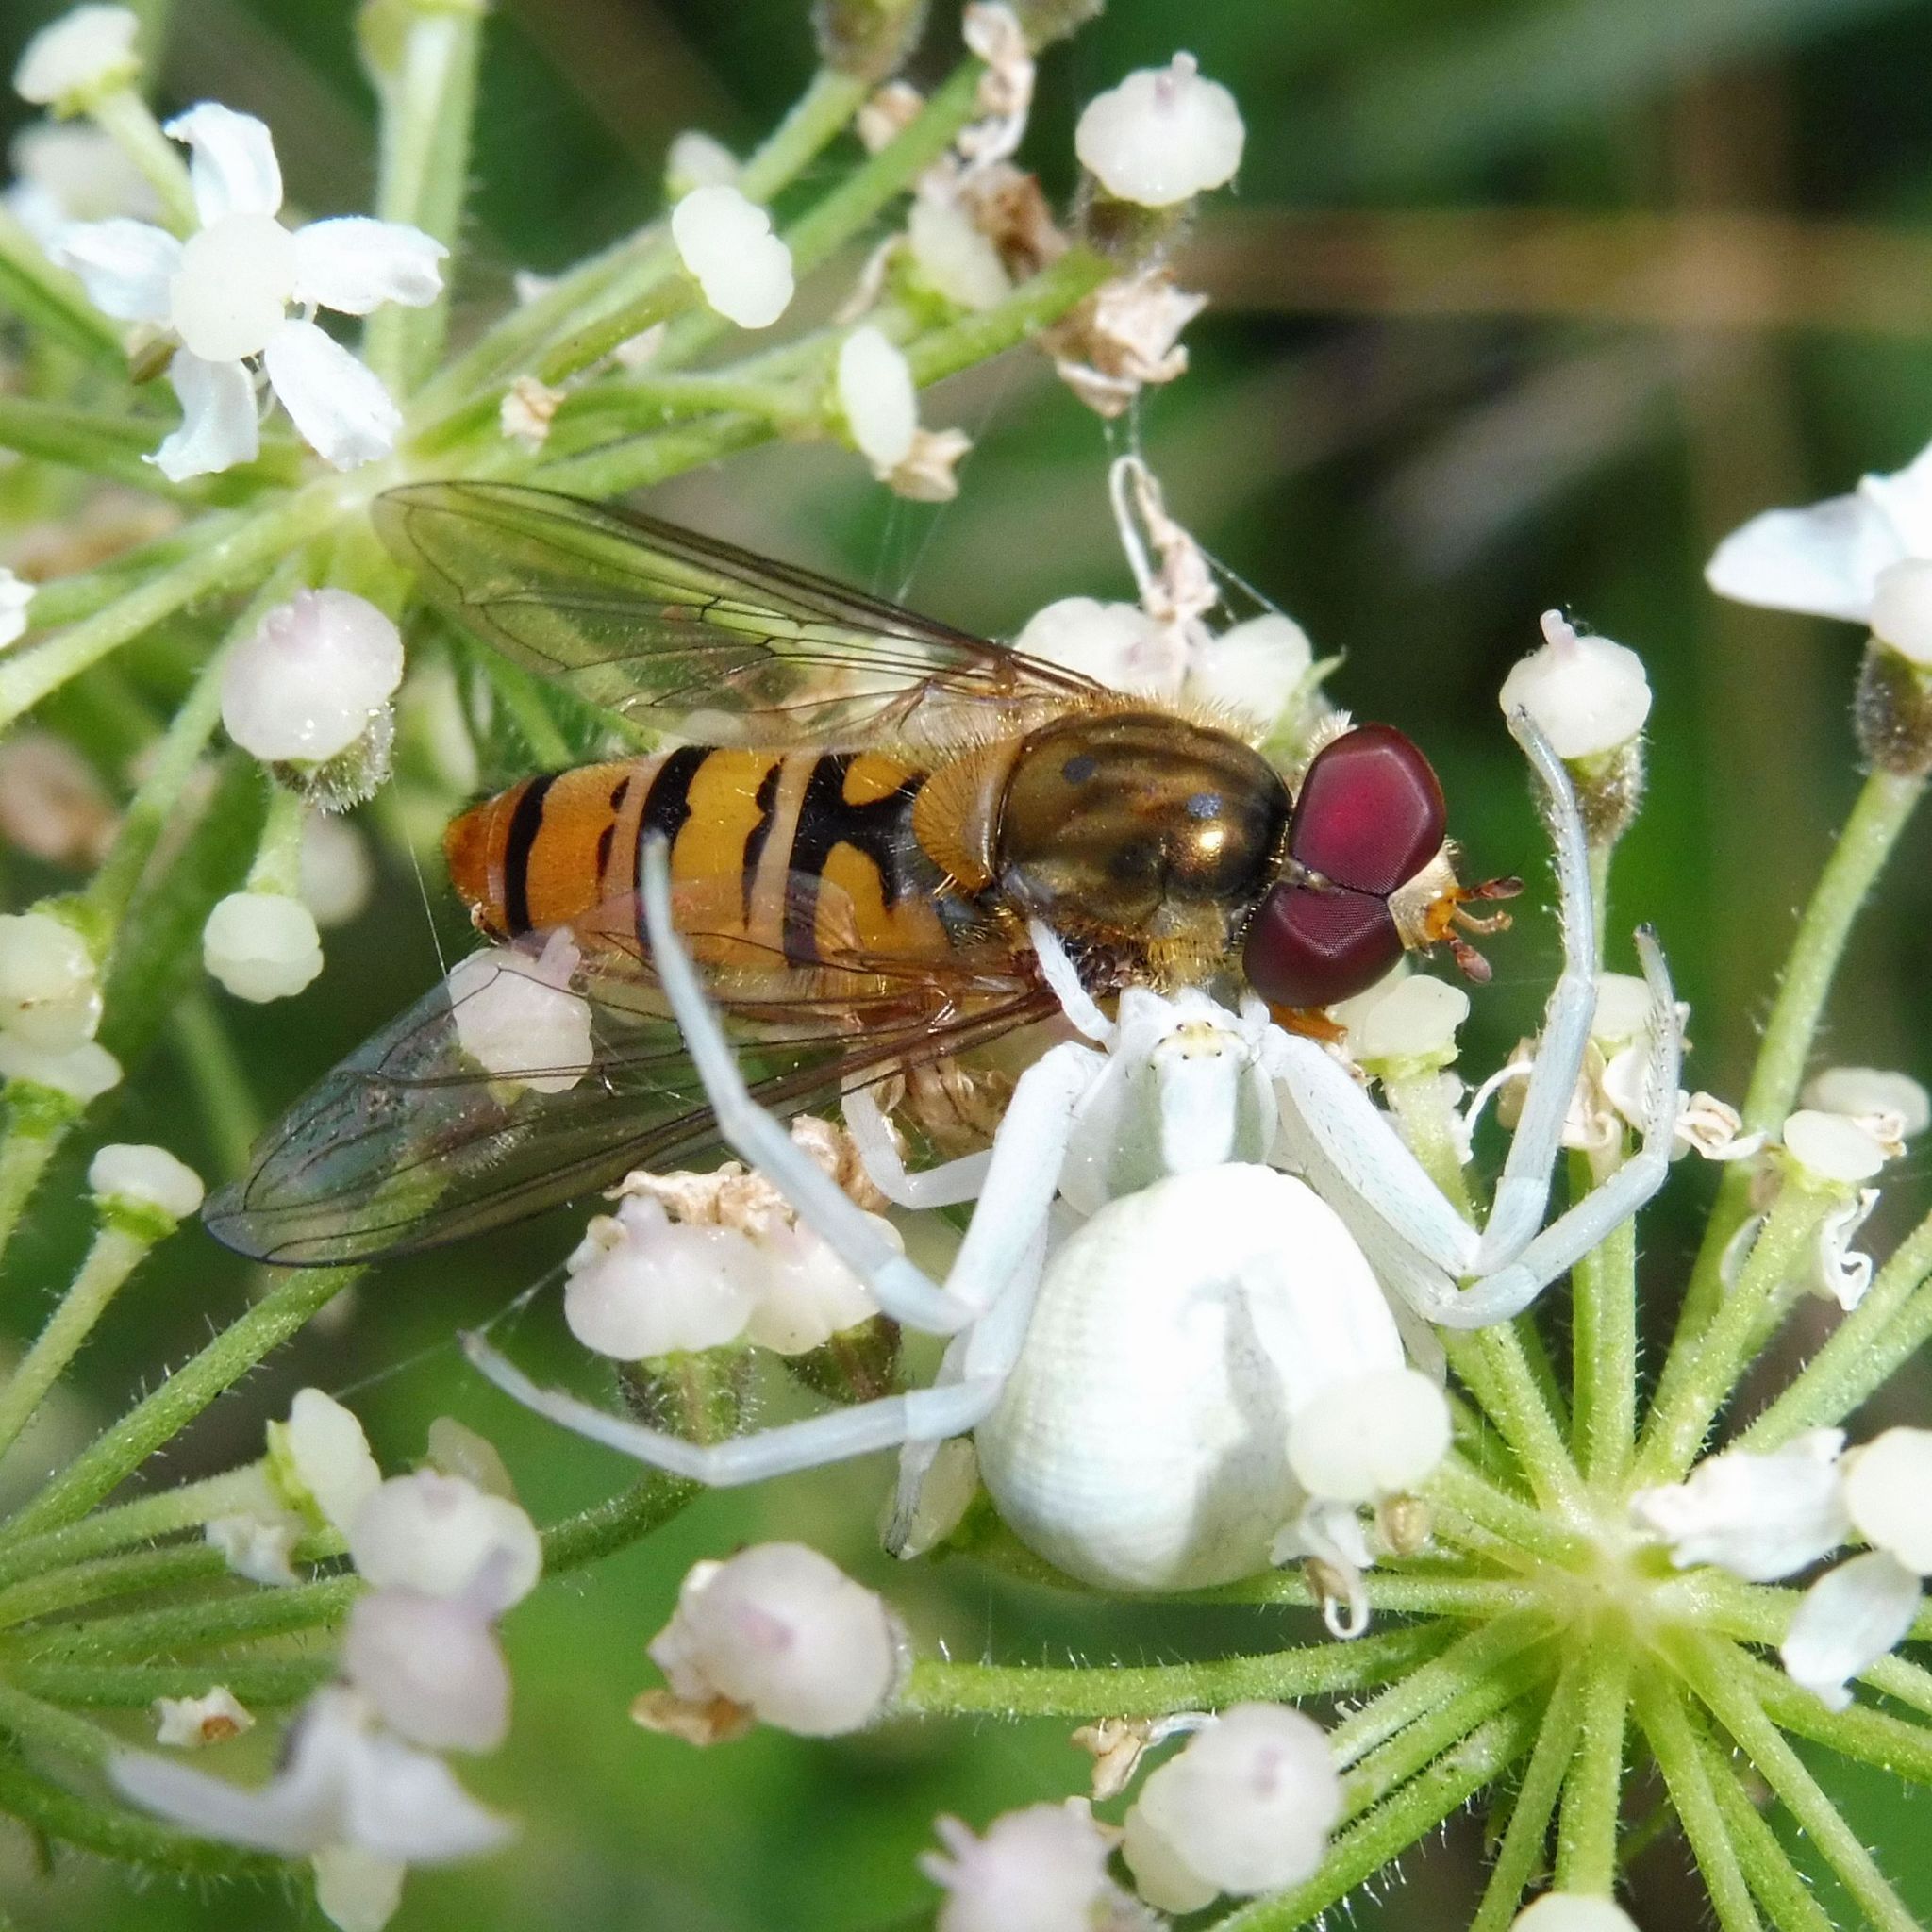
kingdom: Animalia
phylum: Arthropoda
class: Insecta
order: Diptera
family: Syrphidae
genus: Episyrphus
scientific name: Episyrphus balteatus
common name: Marmalade hoverfly
